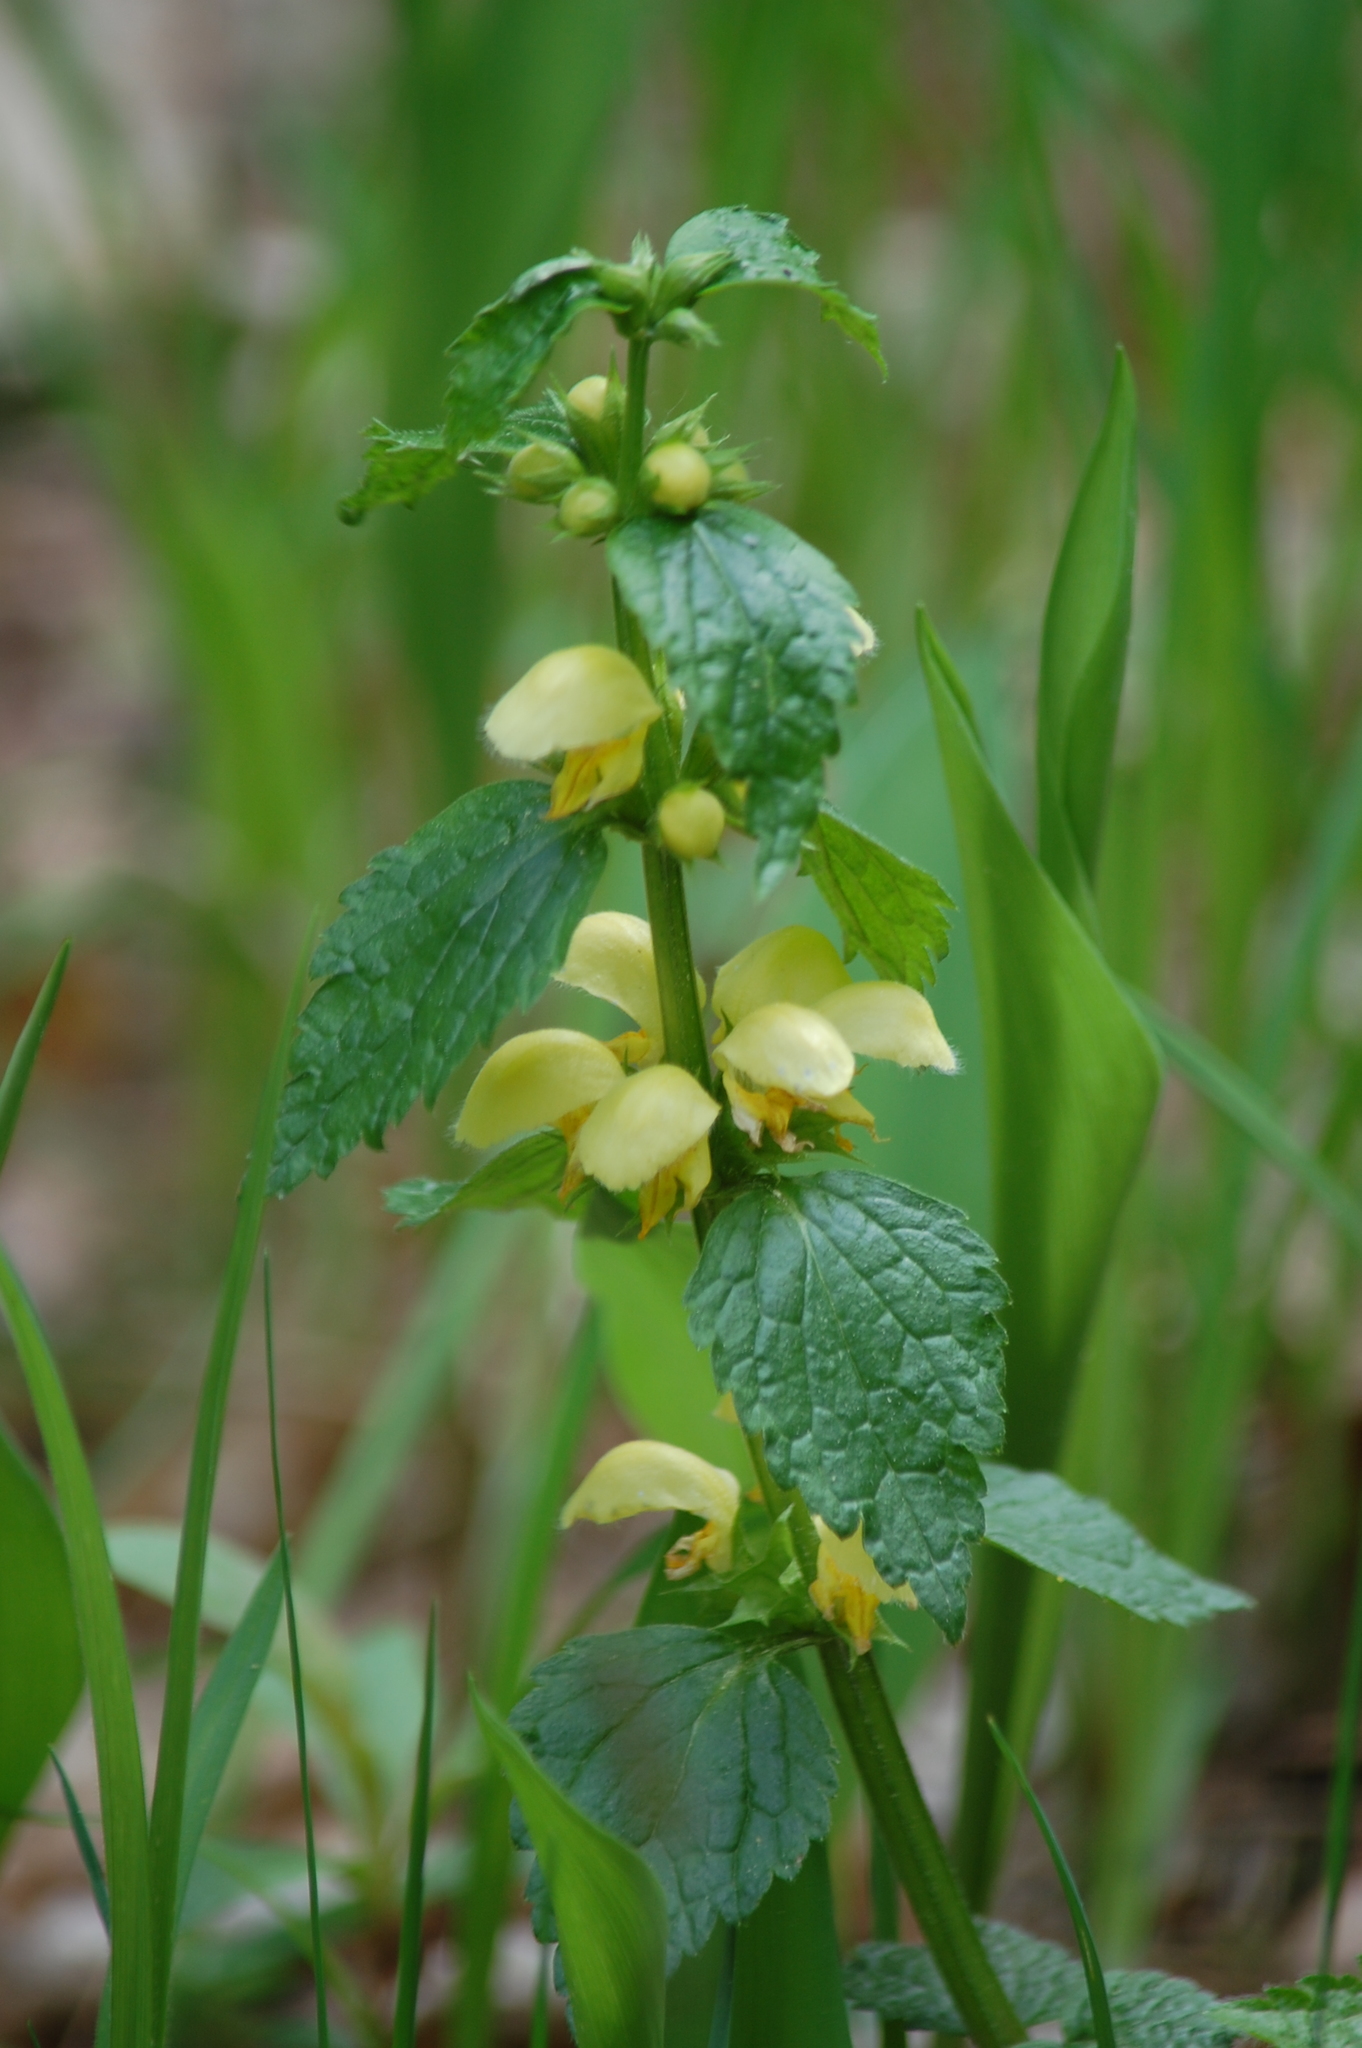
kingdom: Plantae
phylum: Tracheophyta
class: Magnoliopsida
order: Lamiales
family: Lamiaceae
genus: Lamium
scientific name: Lamium galeobdolon
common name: Yellow archangel
